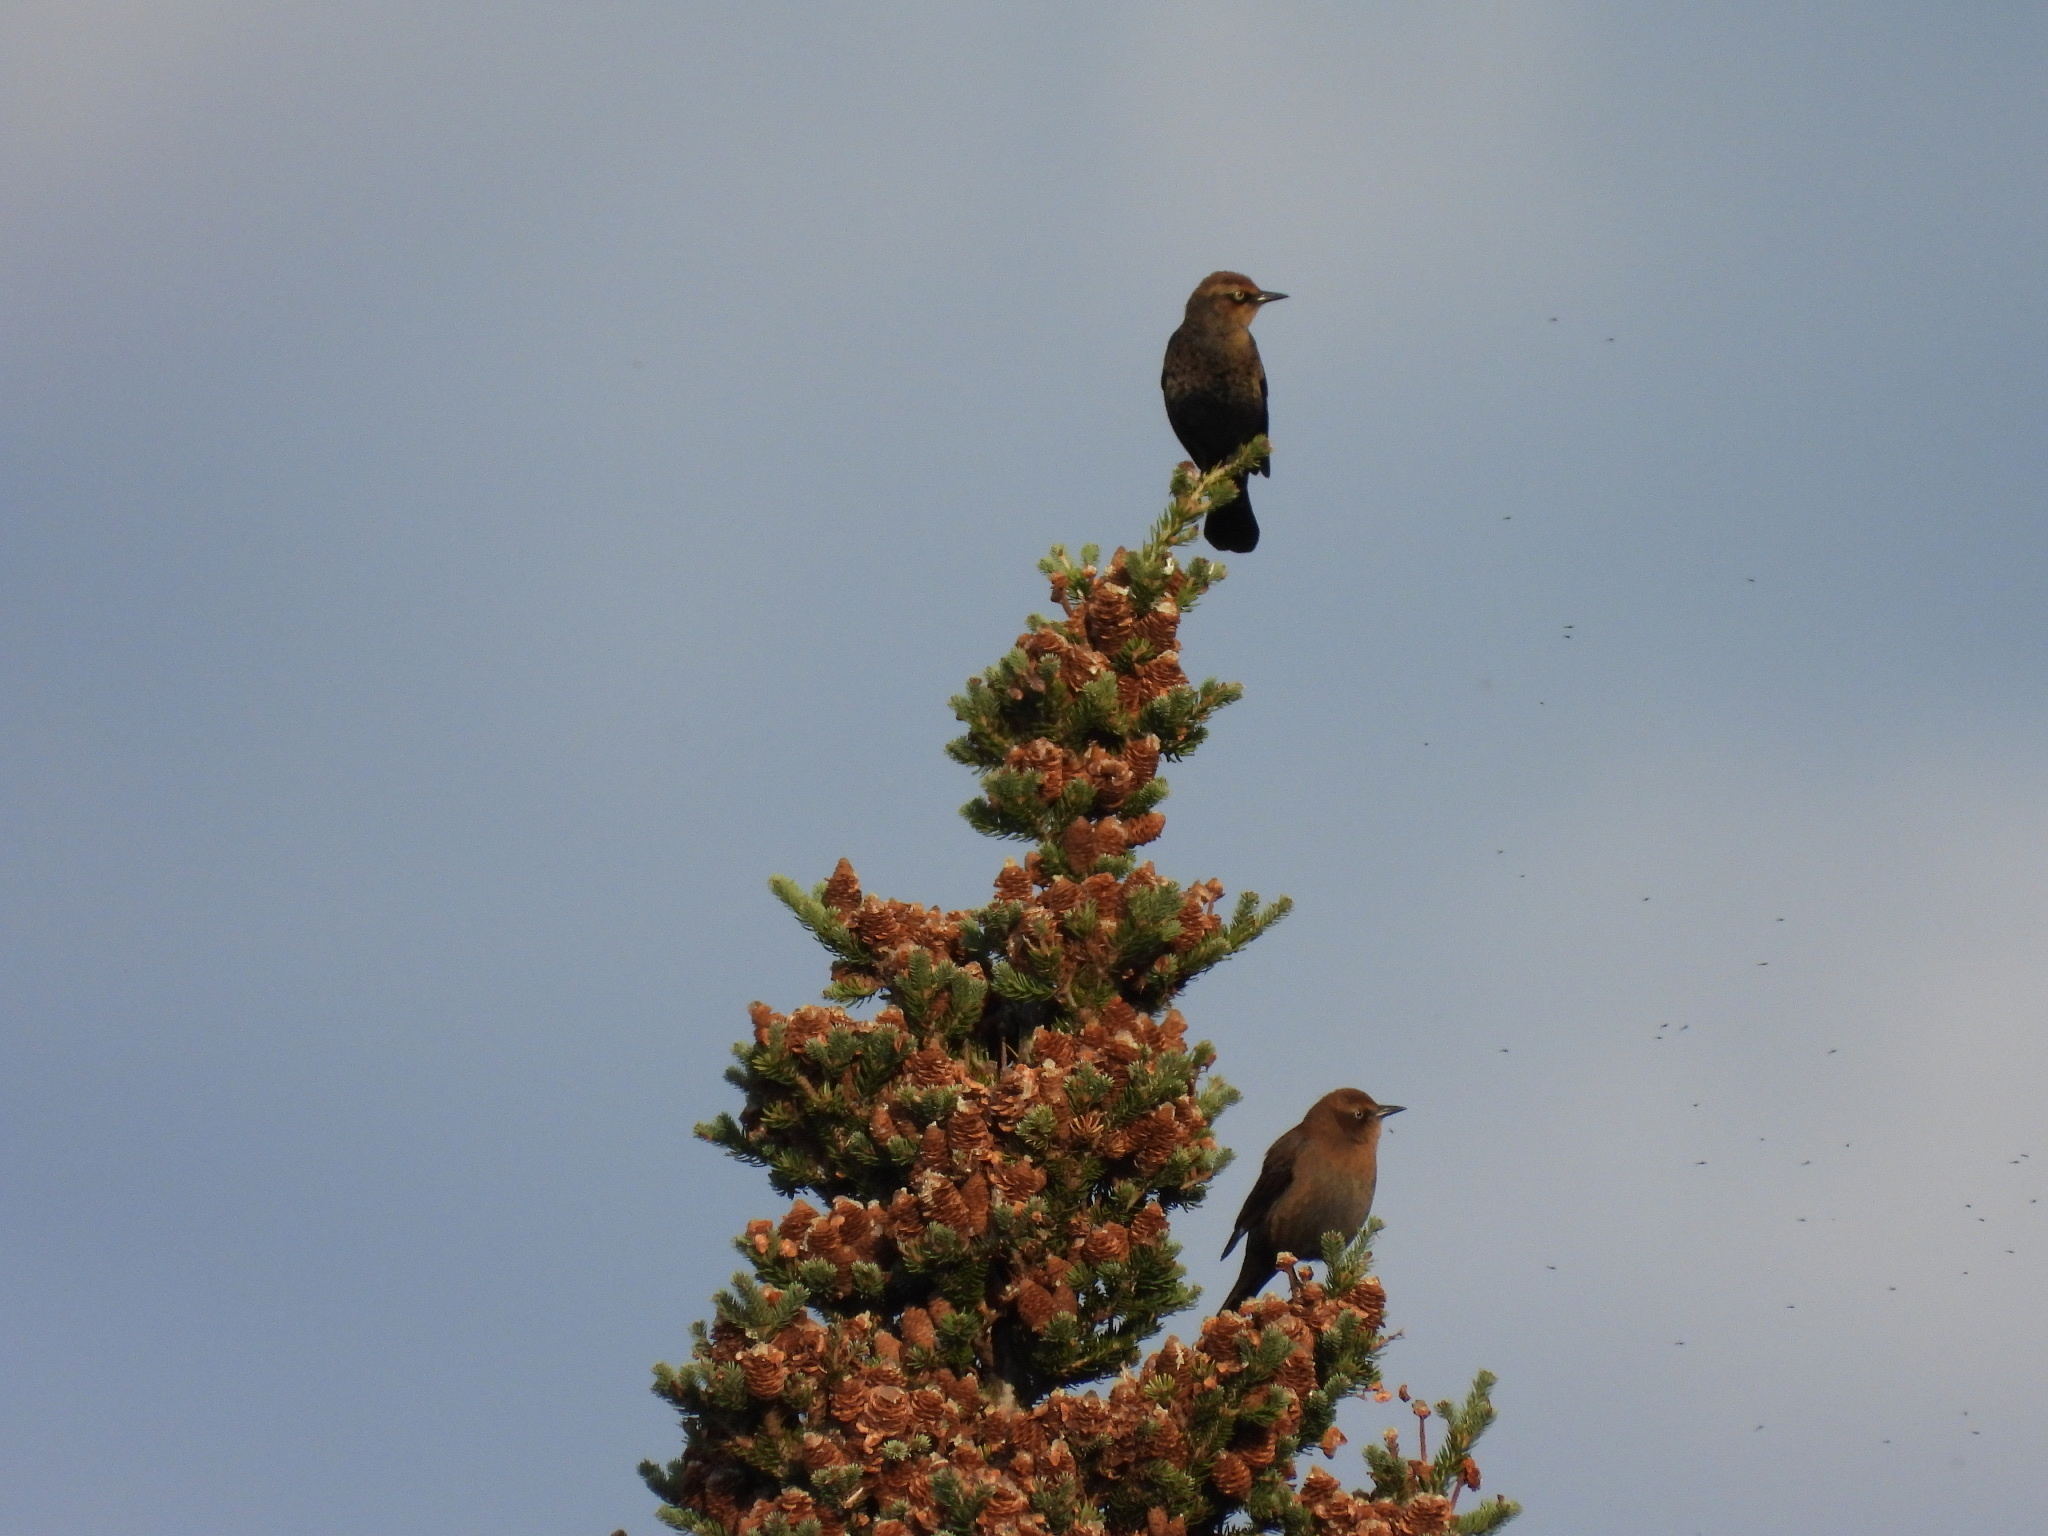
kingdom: Animalia
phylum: Chordata
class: Aves
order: Passeriformes
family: Icteridae
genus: Euphagus
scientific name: Euphagus carolinus
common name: Rusty blackbird
